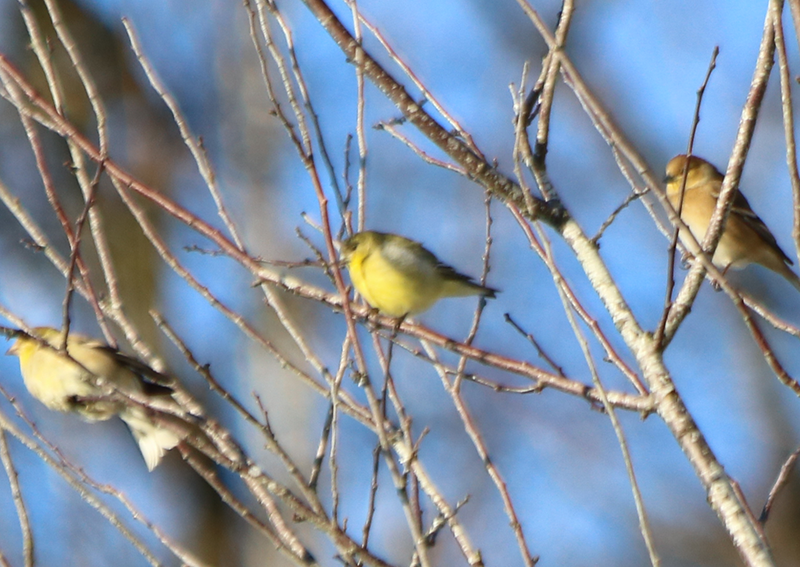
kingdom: Animalia
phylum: Chordata
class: Aves
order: Passeriformes
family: Fringillidae
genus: Spinus
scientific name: Spinus psaltria
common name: Lesser goldfinch
